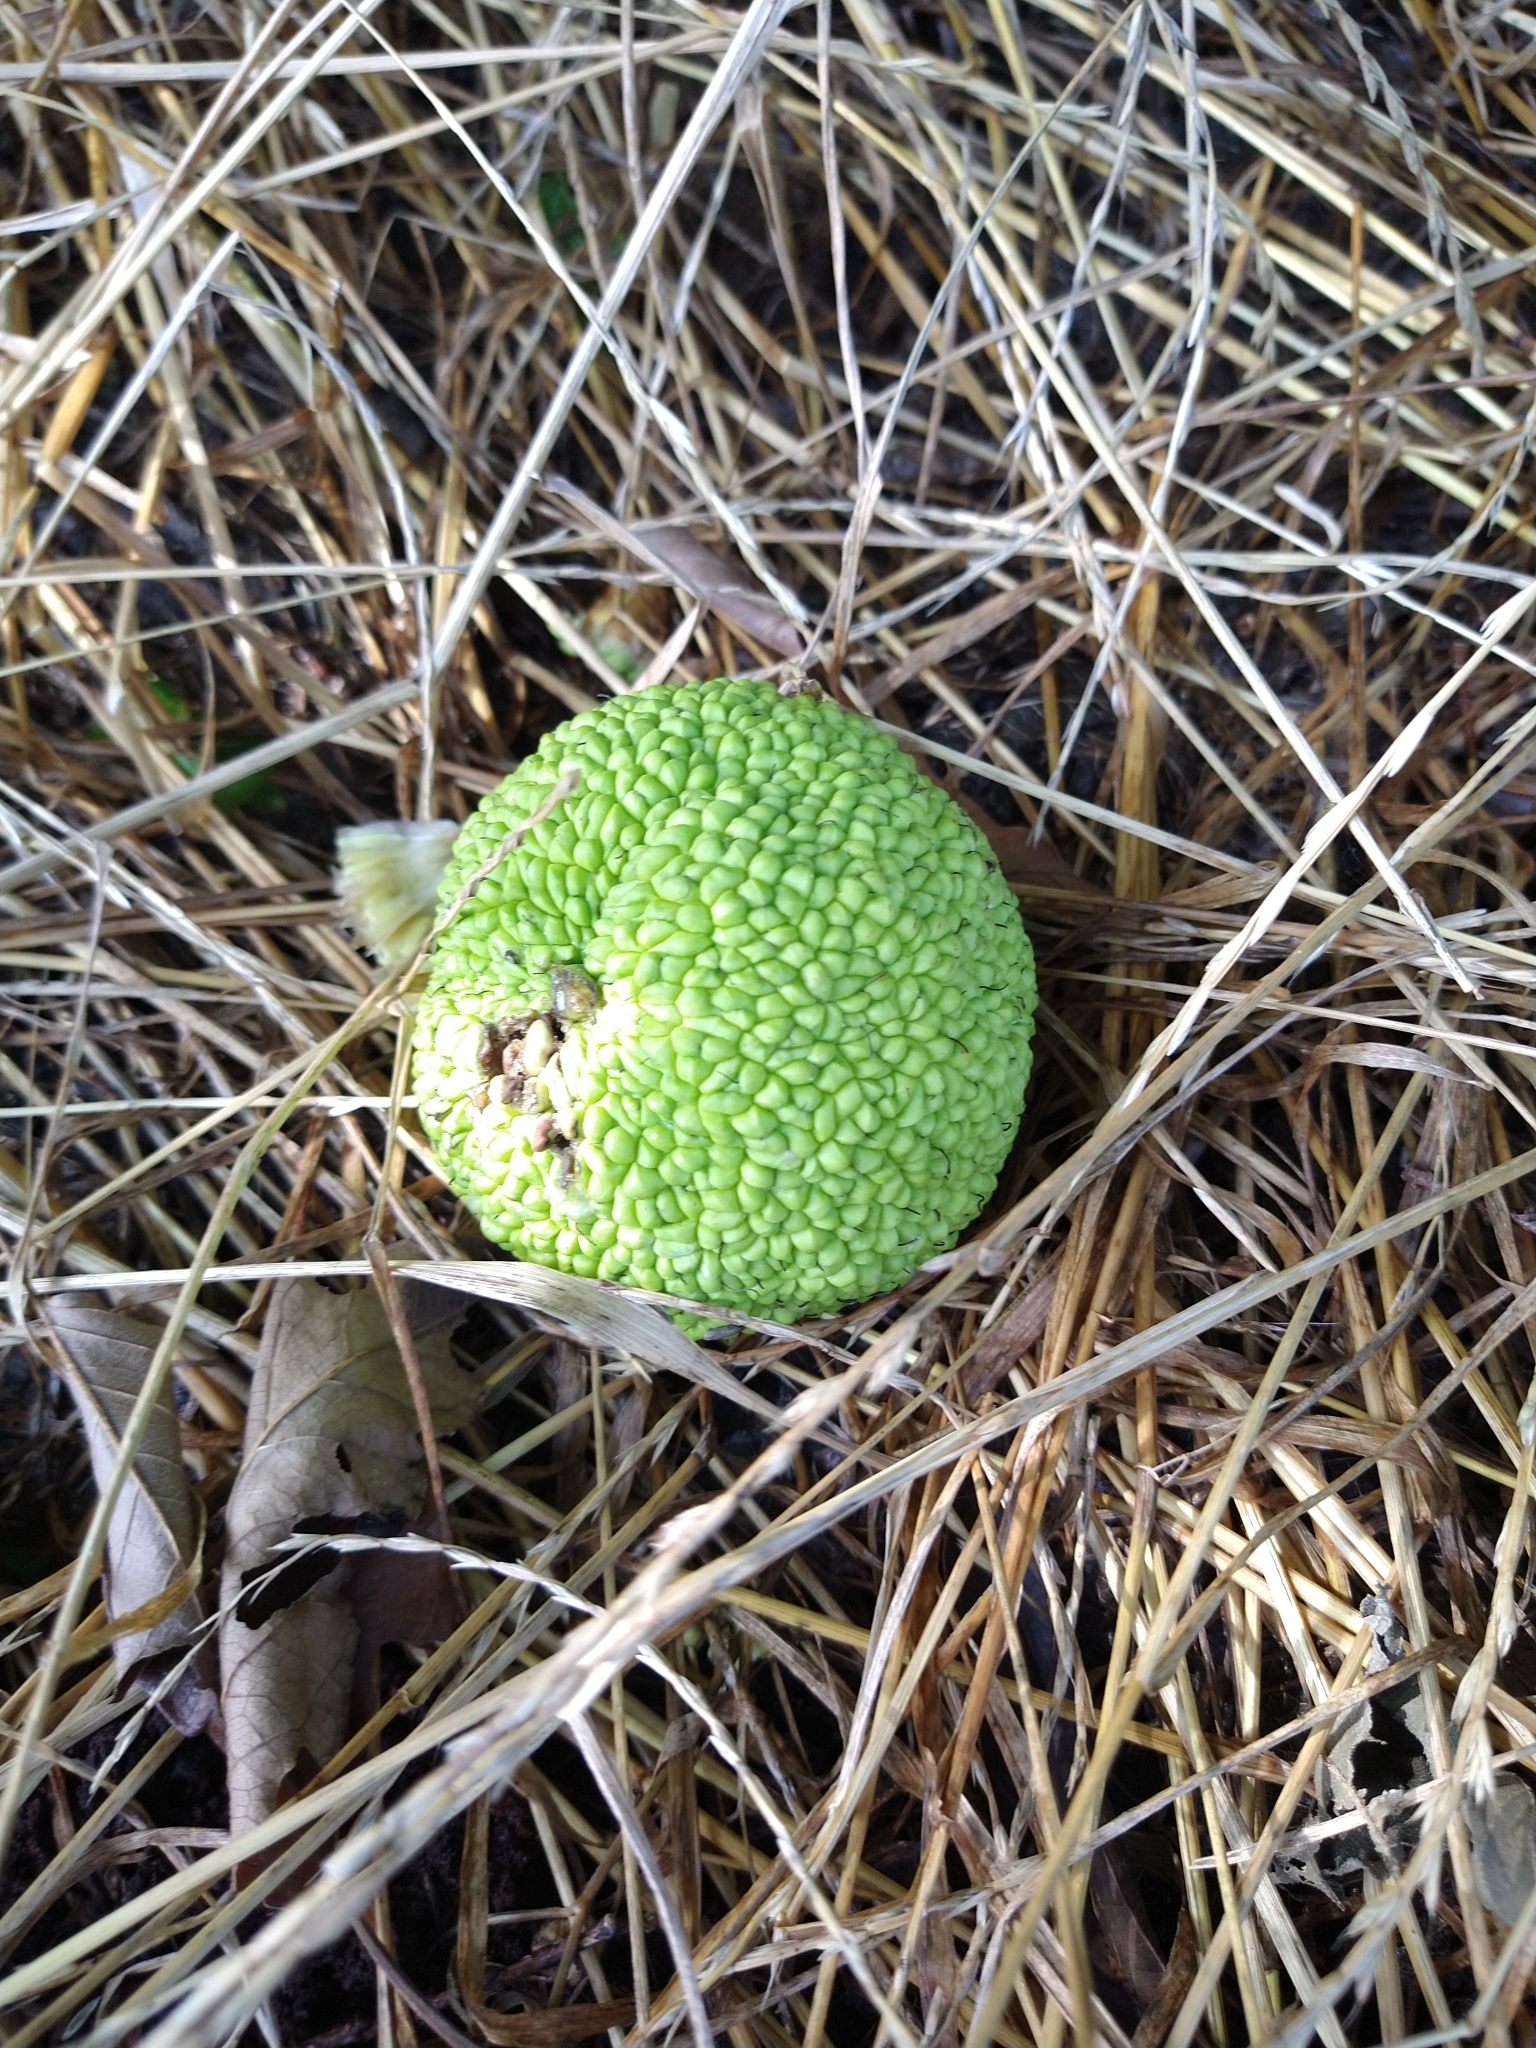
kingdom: Plantae
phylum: Tracheophyta
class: Magnoliopsida
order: Rosales
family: Moraceae
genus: Maclura
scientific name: Maclura pomifera
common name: Osage-orange
